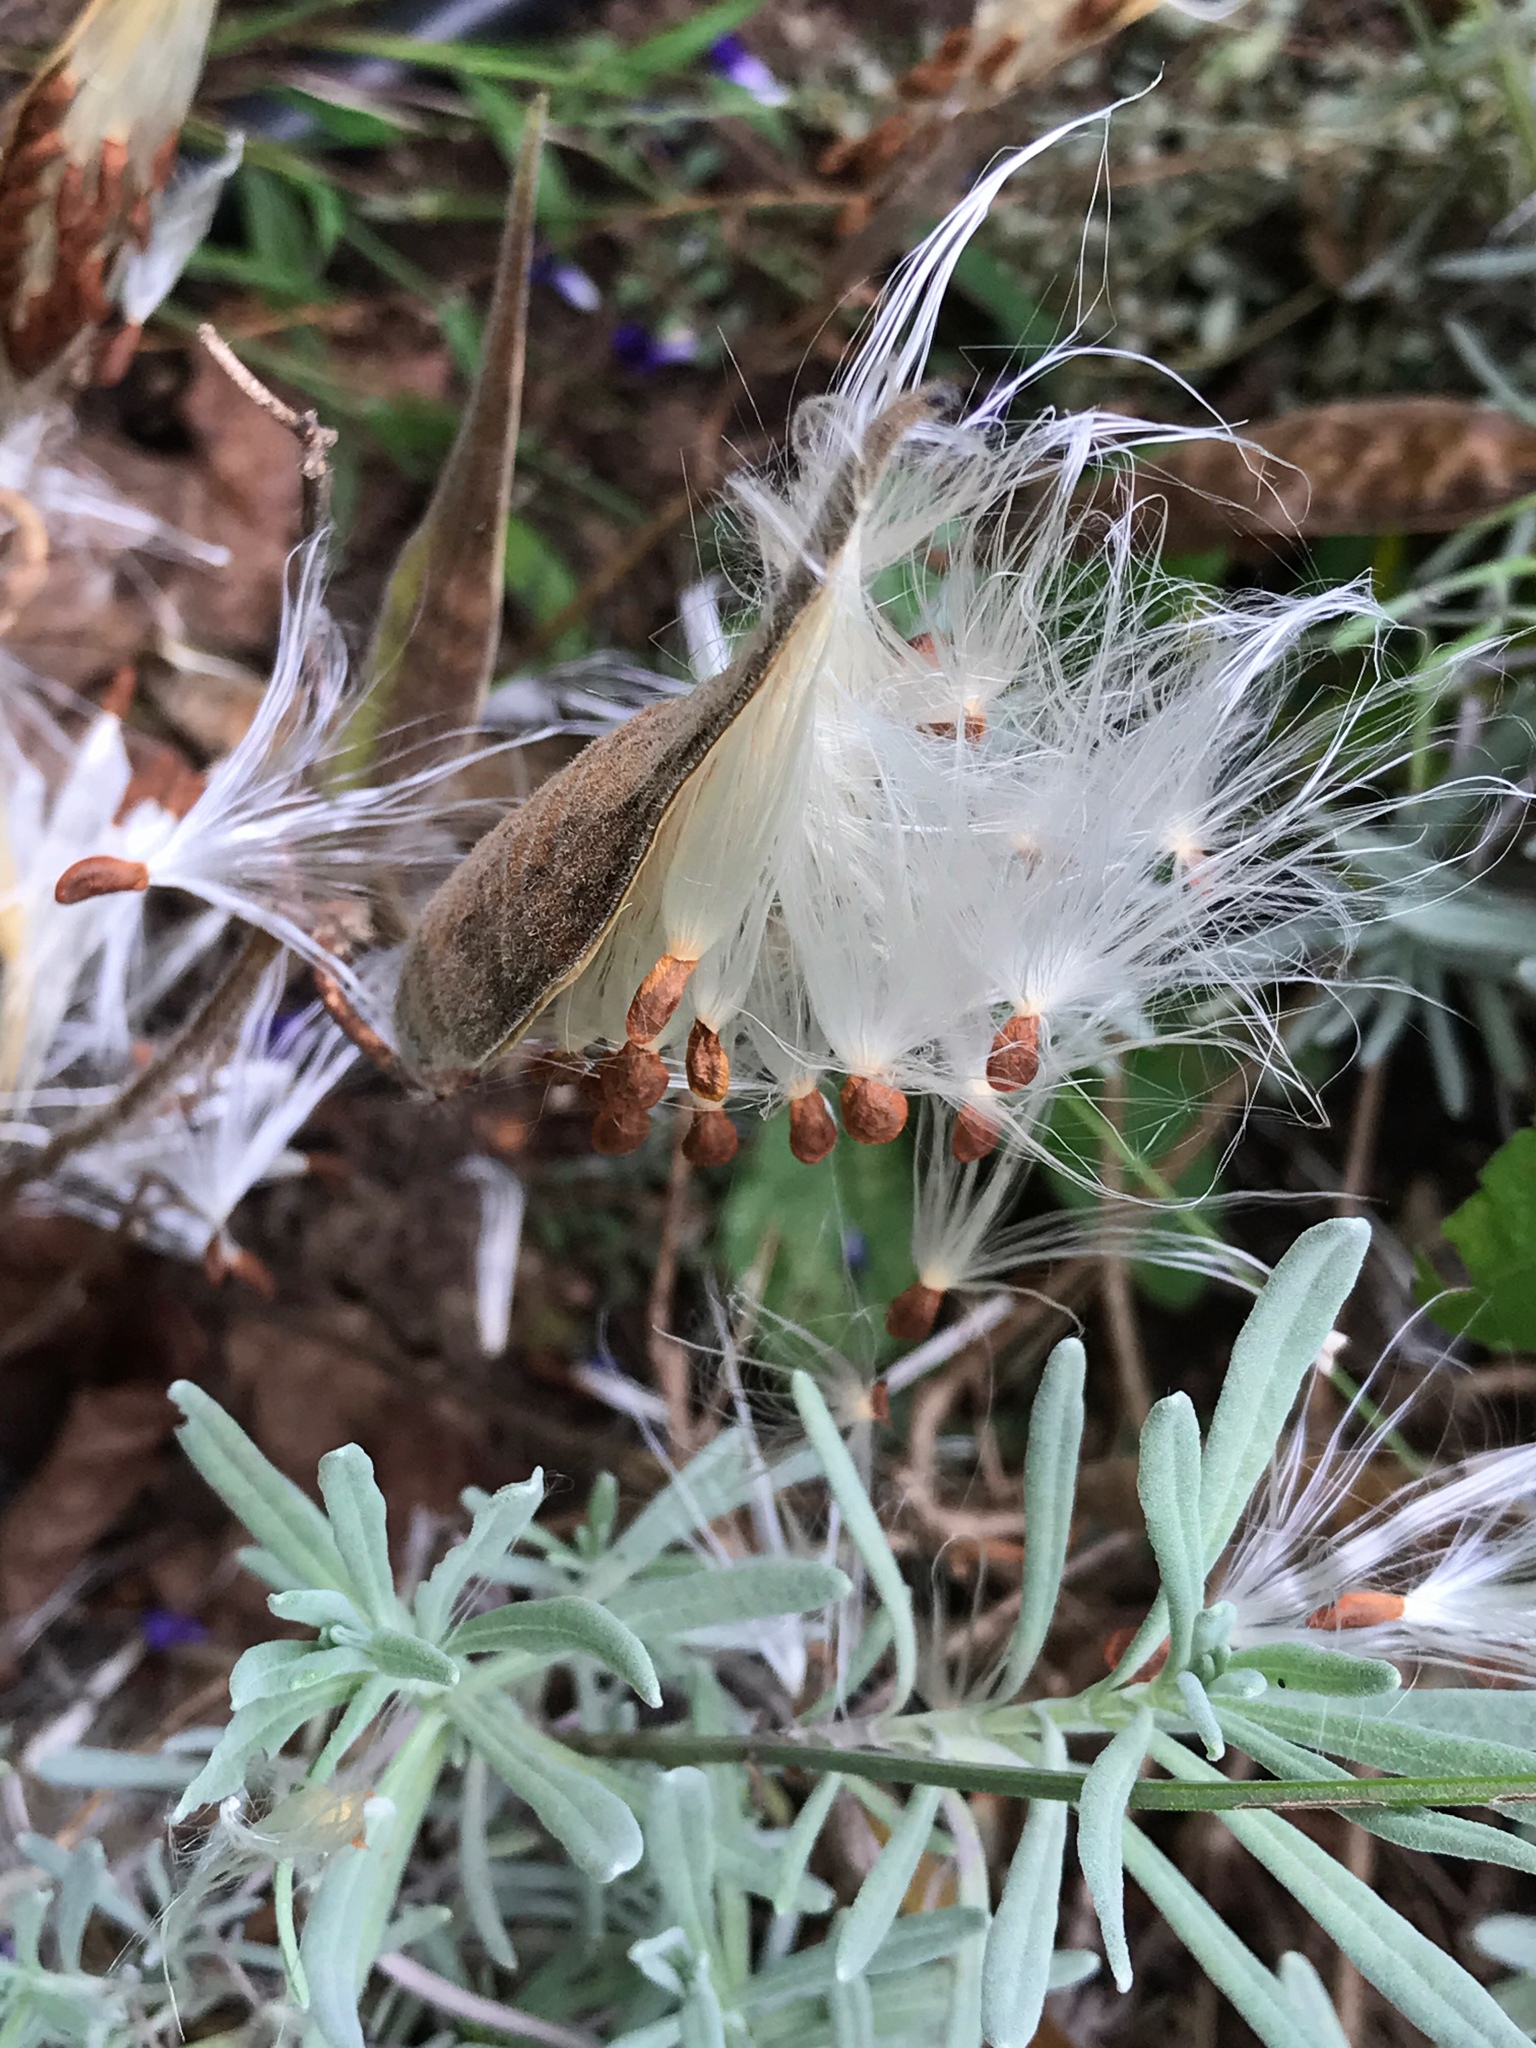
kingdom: Plantae
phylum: Tracheophyta
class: Magnoliopsida
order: Gentianales
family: Apocynaceae
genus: Asclepias
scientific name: Asclepias tuberosa
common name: Butterfly milkweed
